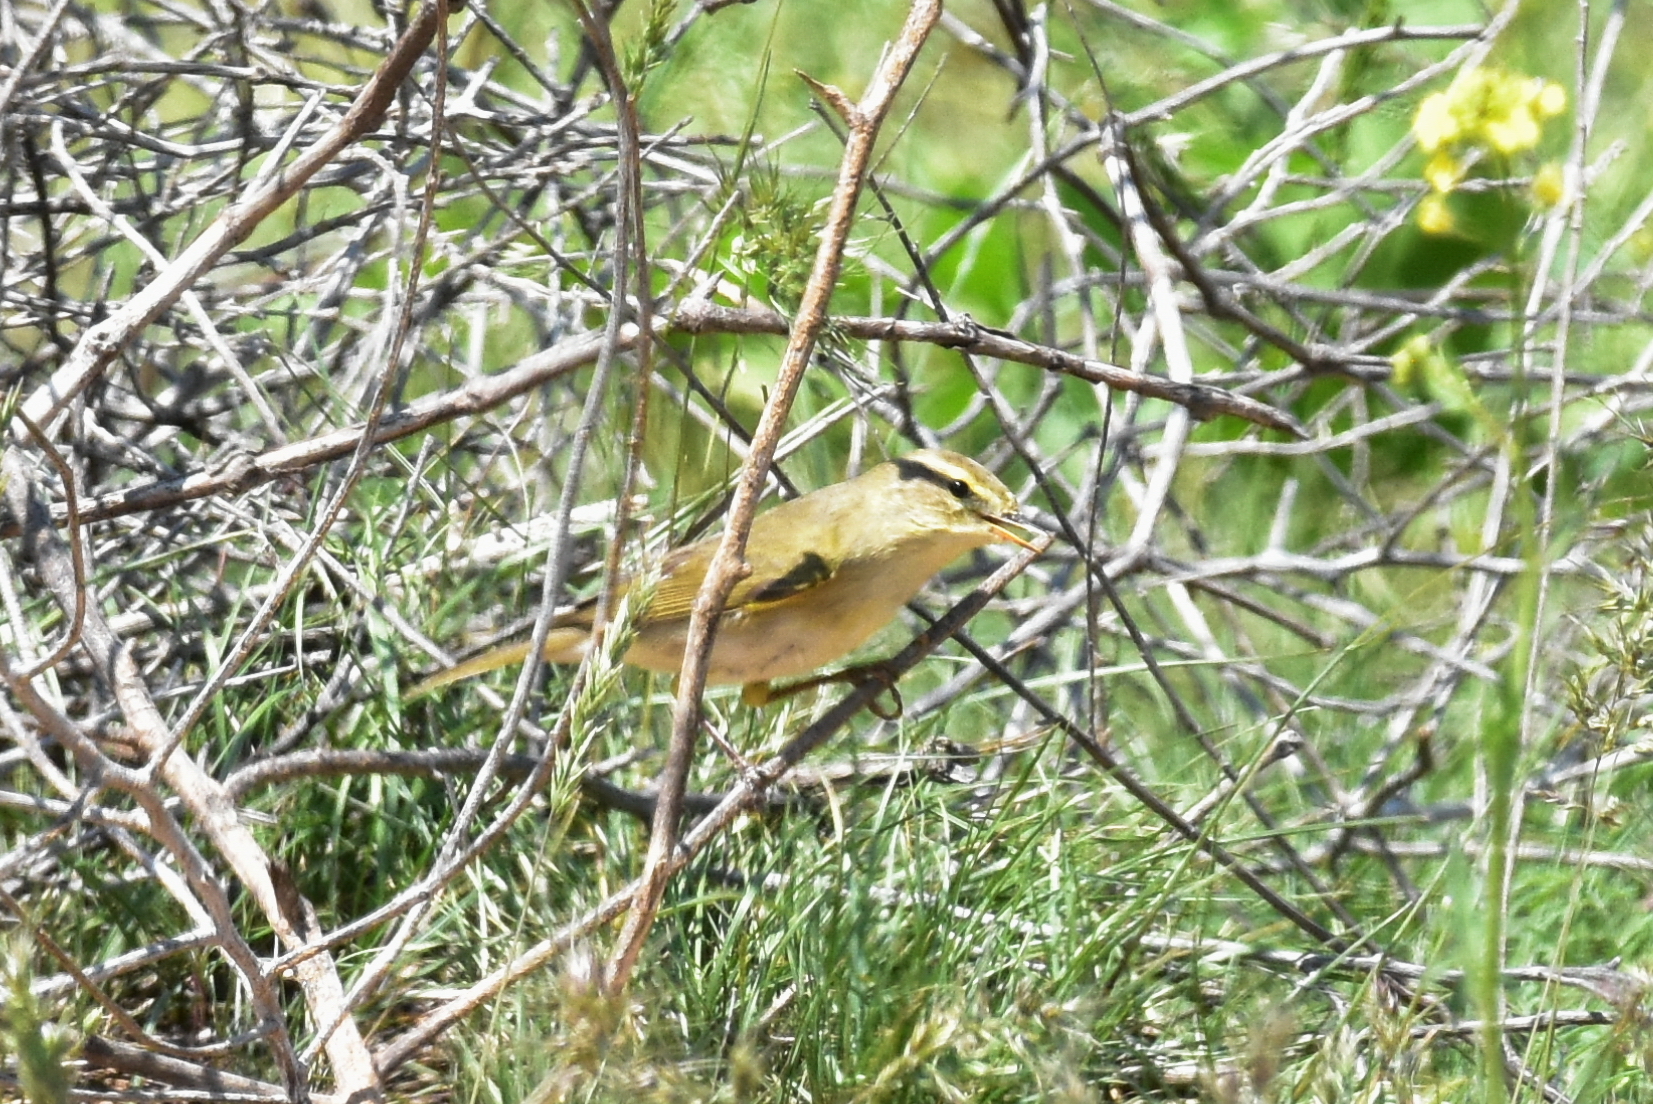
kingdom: Animalia
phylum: Chordata
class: Aves
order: Passeriformes
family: Phylloscopidae
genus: Phylloscopus
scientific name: Phylloscopus collybita
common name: Common chiffchaff
